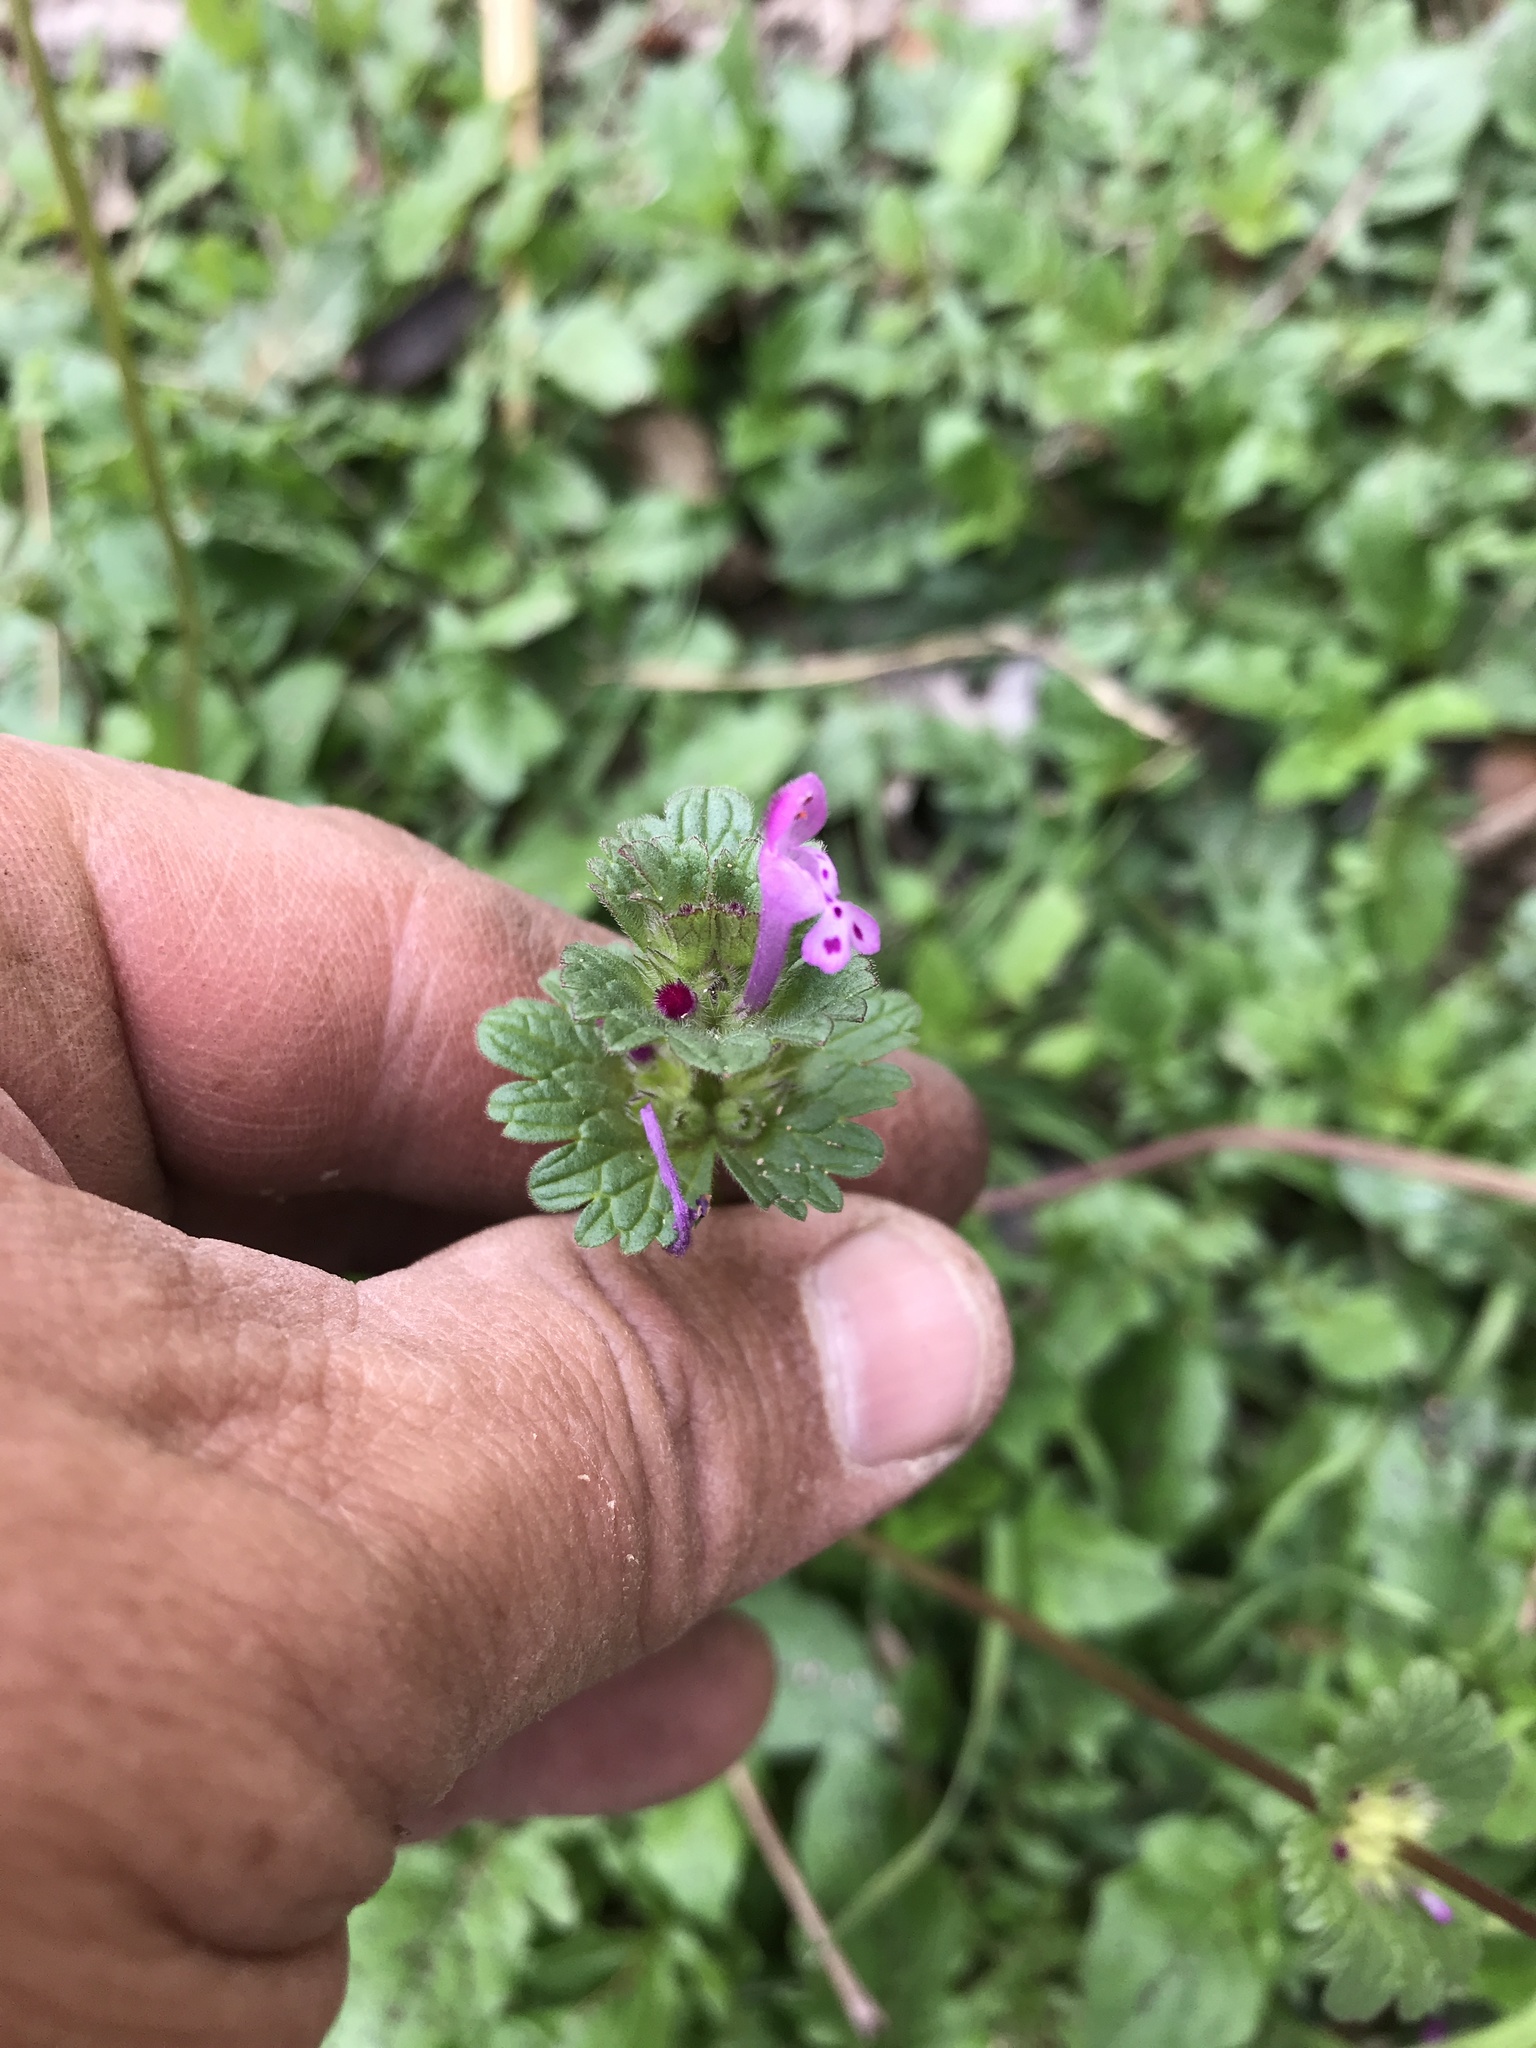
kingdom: Plantae
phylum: Tracheophyta
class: Magnoliopsida
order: Lamiales
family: Lamiaceae
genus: Lamium
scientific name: Lamium amplexicaule
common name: Henbit dead-nettle
